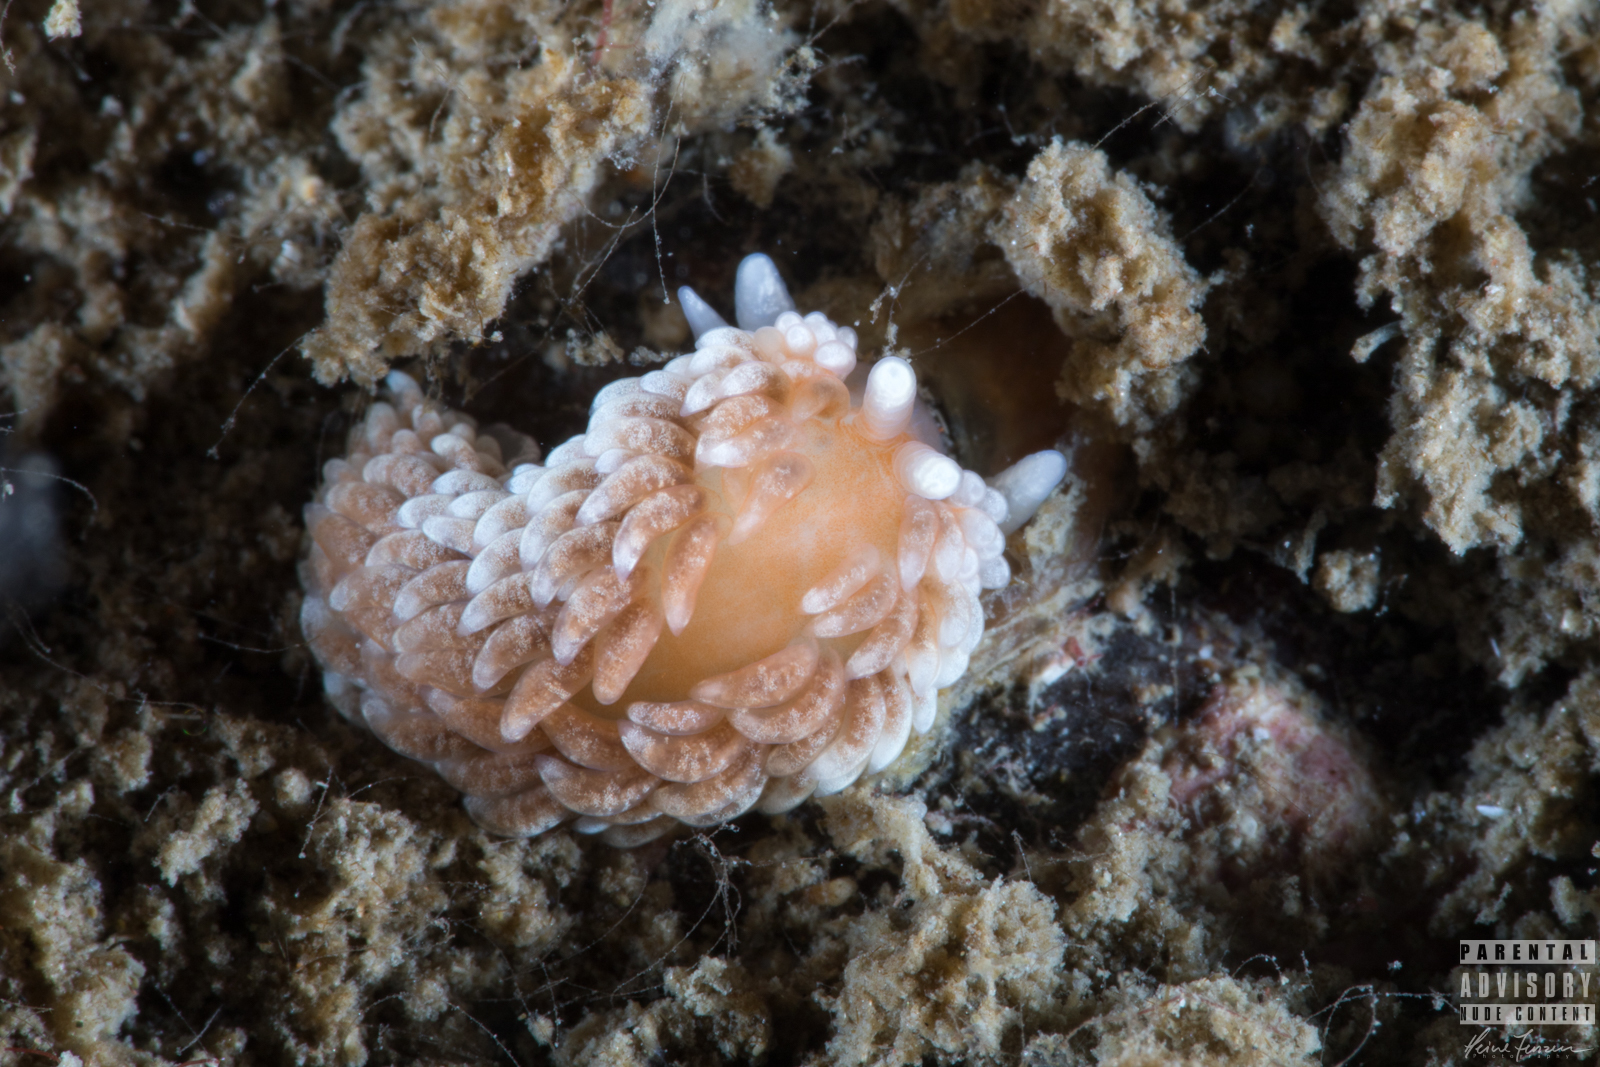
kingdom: Animalia
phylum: Mollusca
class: Gastropoda
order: Nudibranchia
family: Aeolidiidae
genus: Aeolidiella
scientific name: Aeolidiella glauca
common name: Orange-brown aeolid
